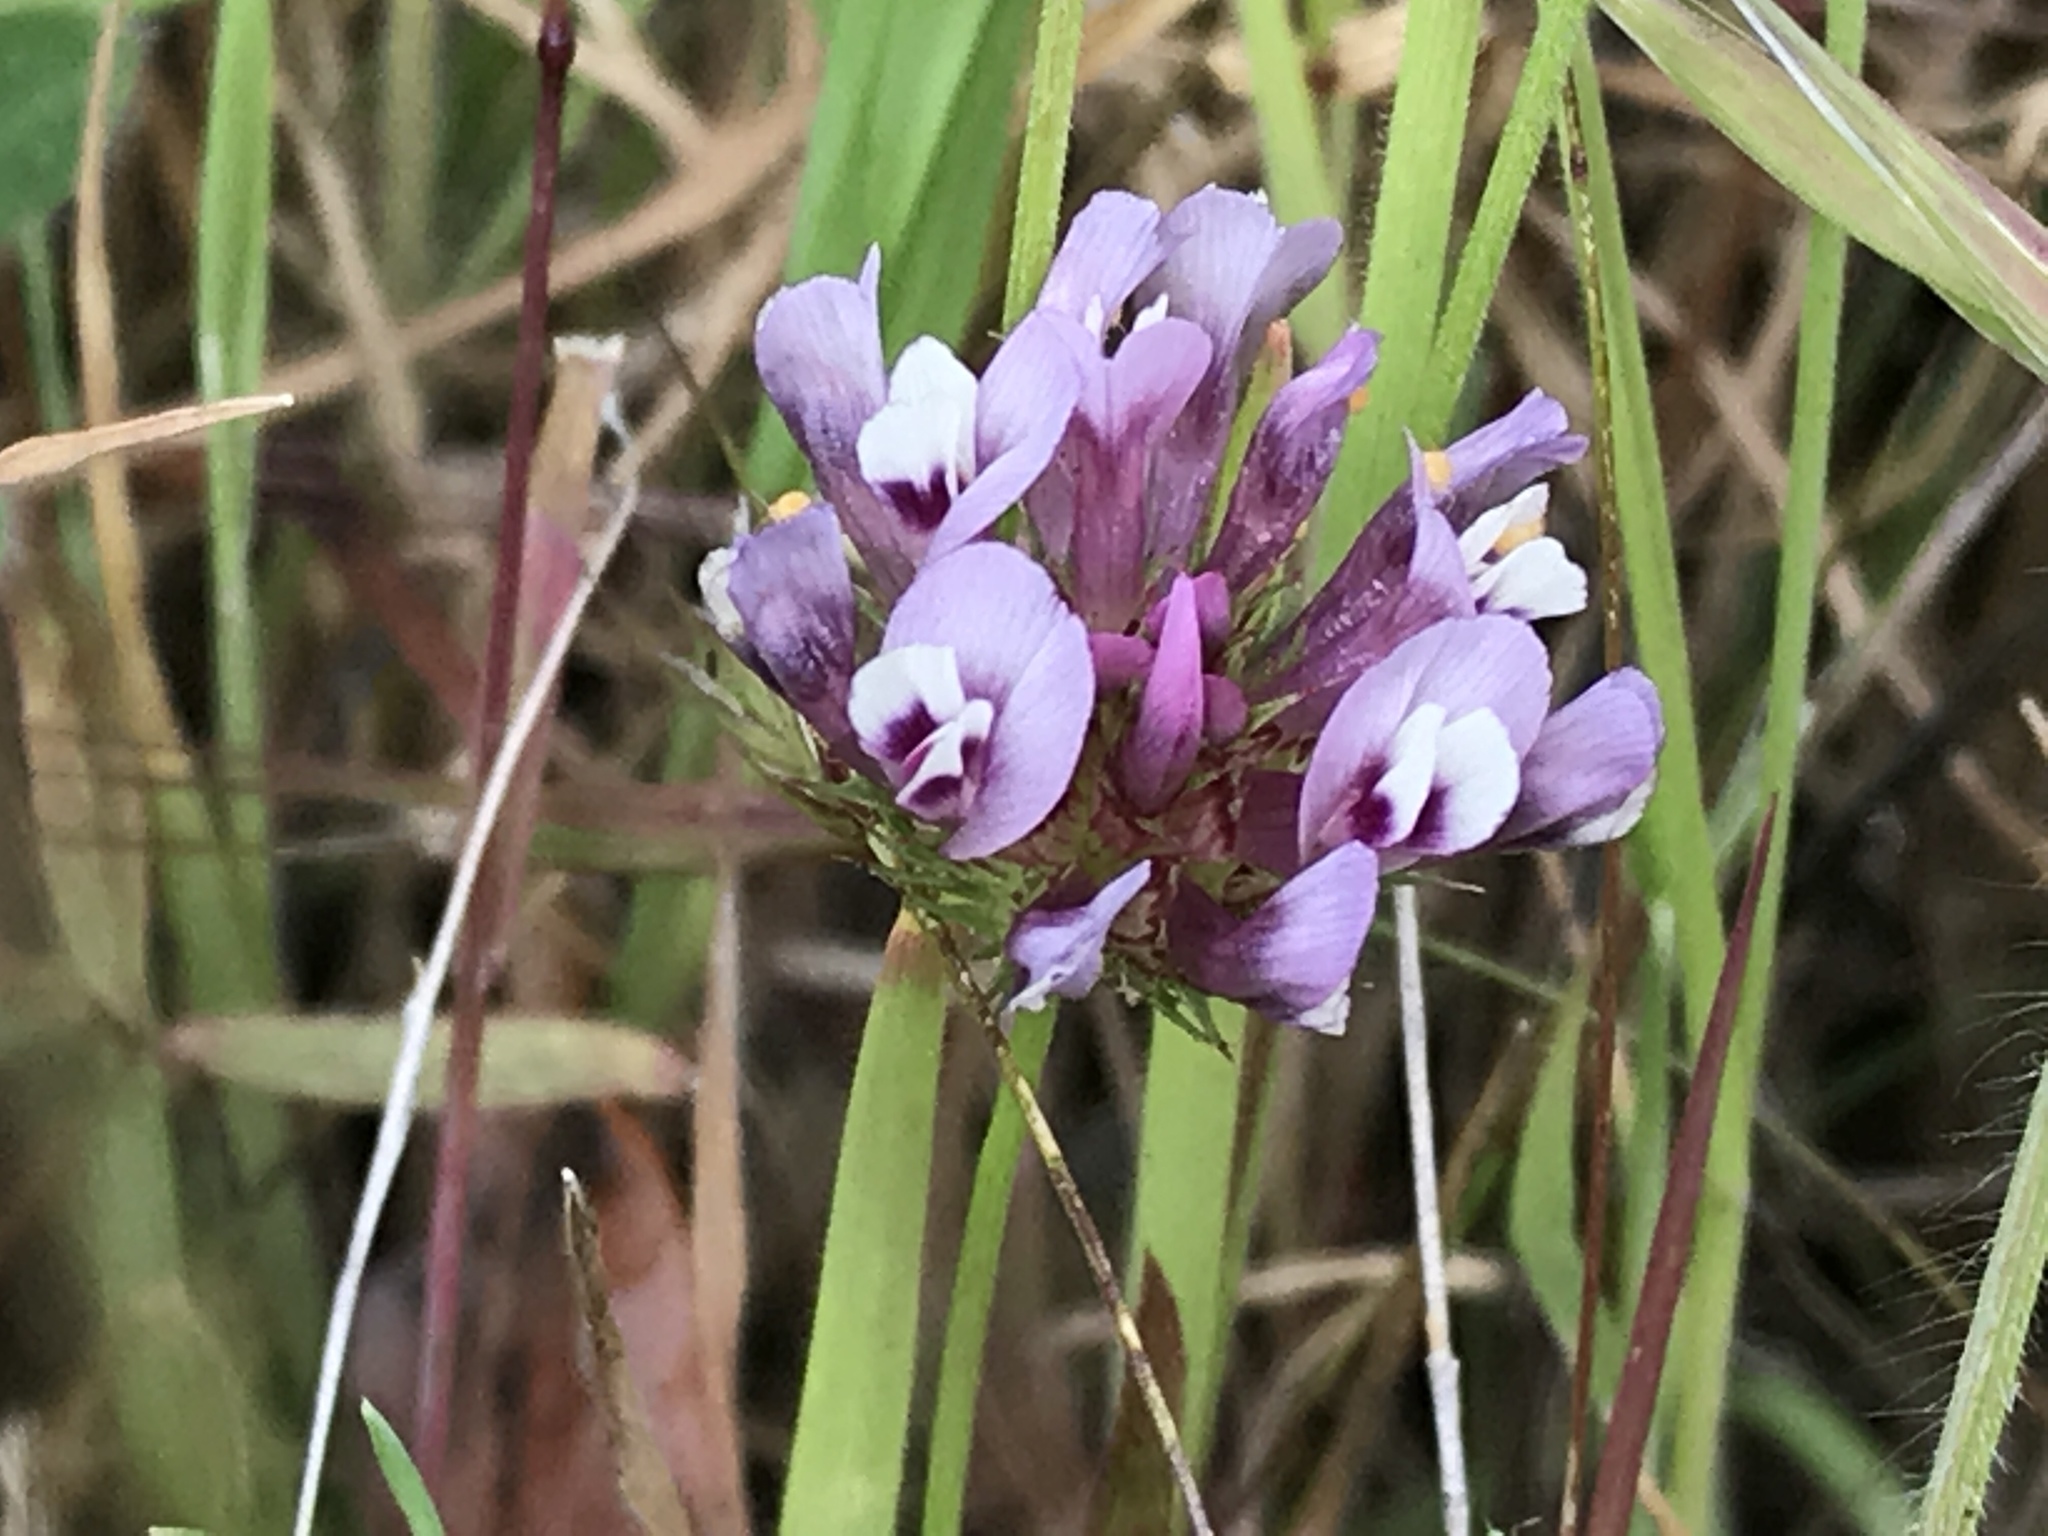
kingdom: Plantae
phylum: Tracheophyta
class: Magnoliopsida
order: Fabales
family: Fabaceae
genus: Trifolium
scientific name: Trifolium willdenovii
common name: Tomcat clover
